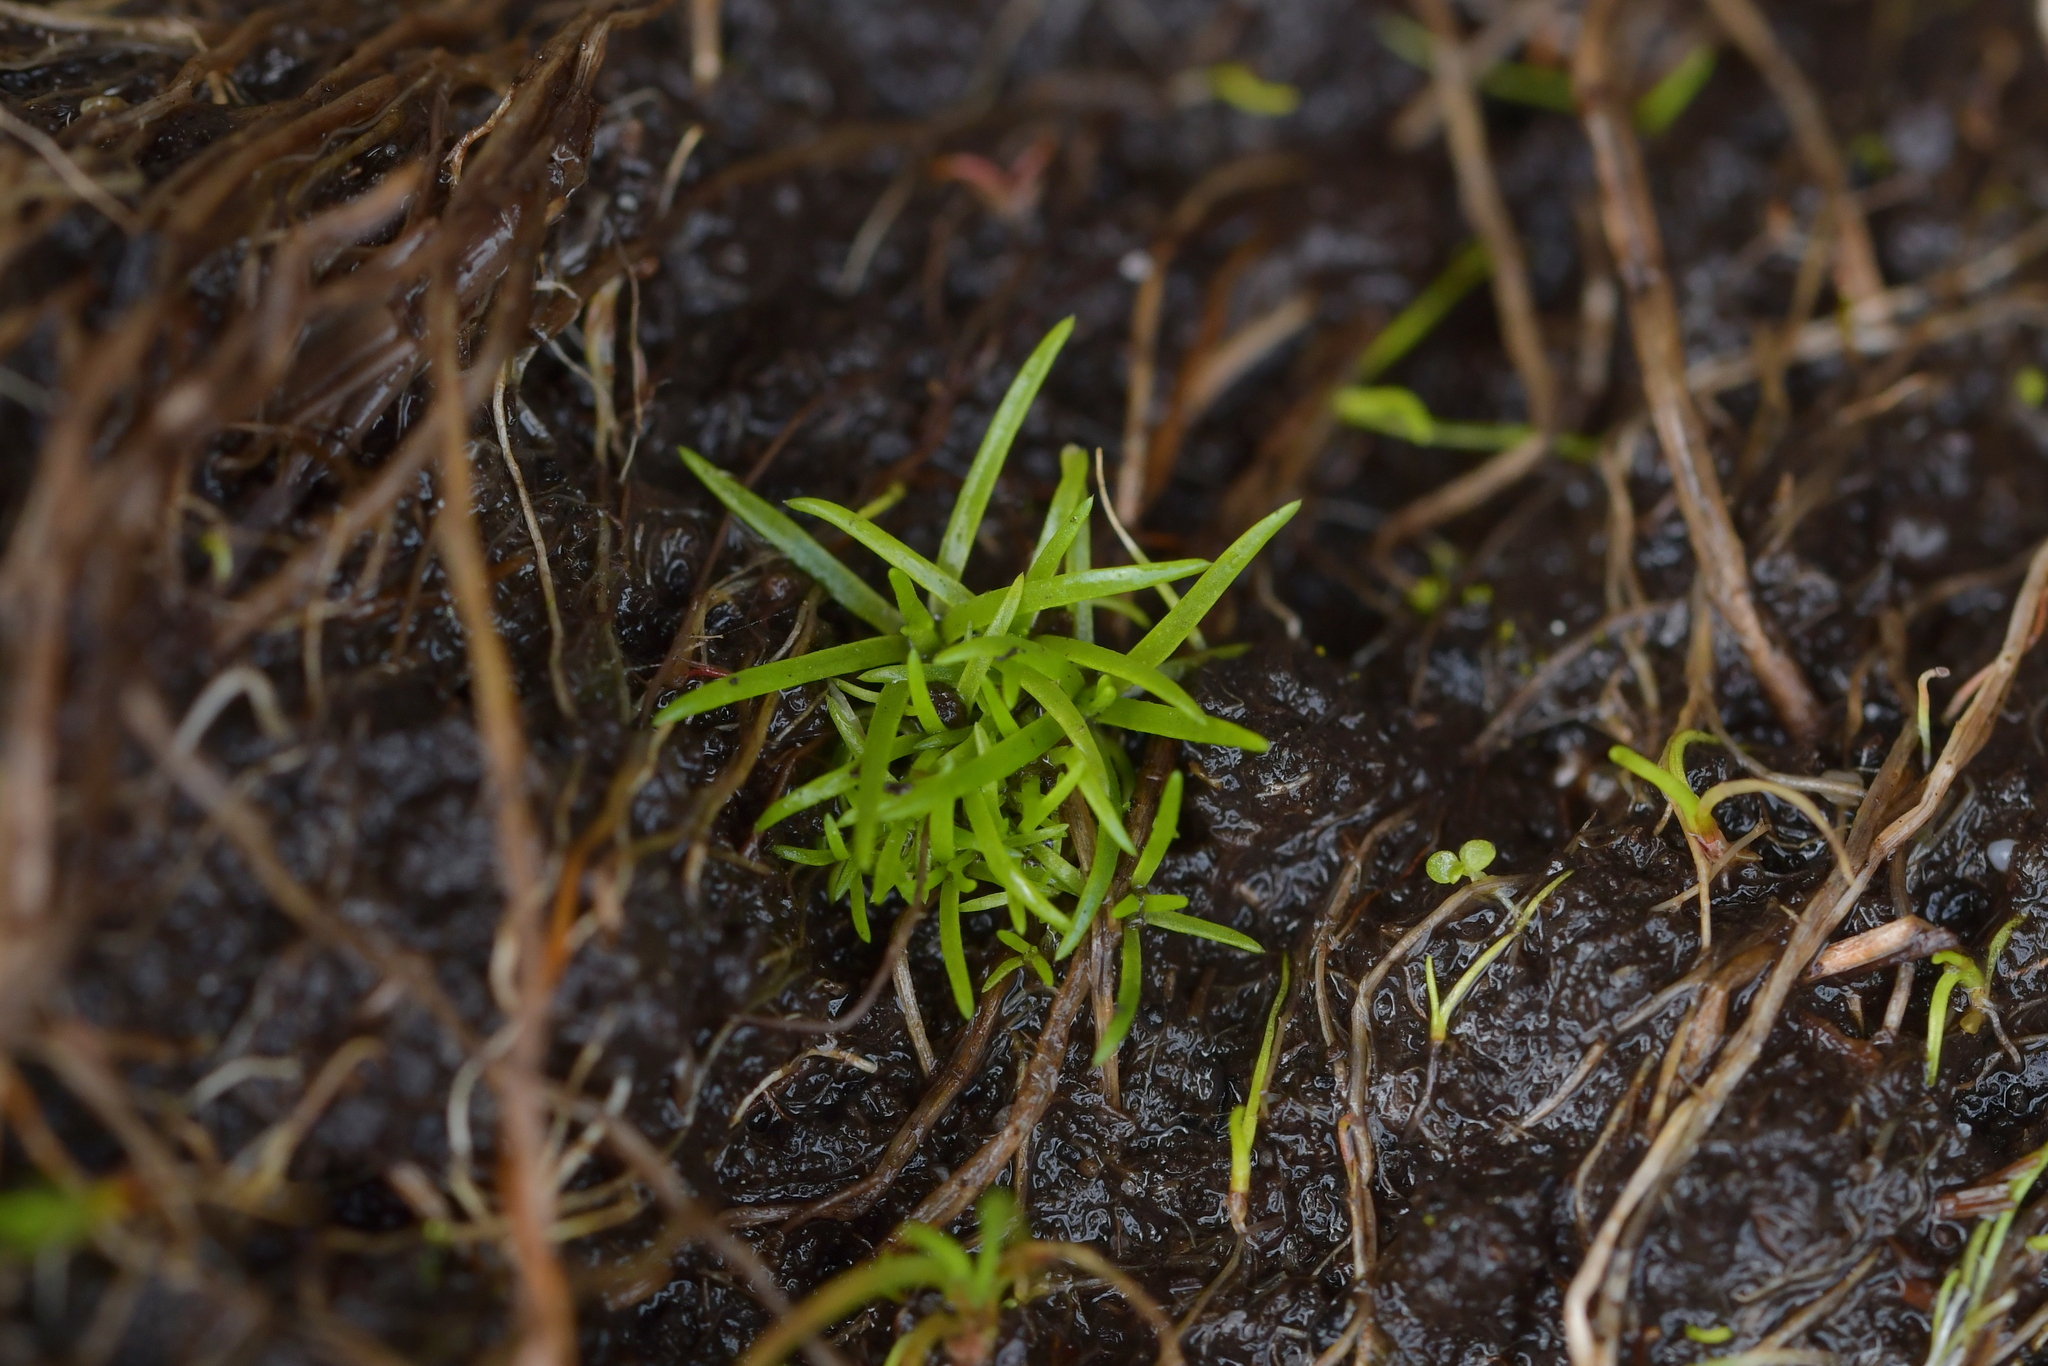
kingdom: Plantae
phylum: Tracheophyta
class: Magnoliopsida
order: Caryophyllales
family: Caryophyllaceae
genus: Sagina
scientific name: Sagina procumbens
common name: Procumbent pearlwort
